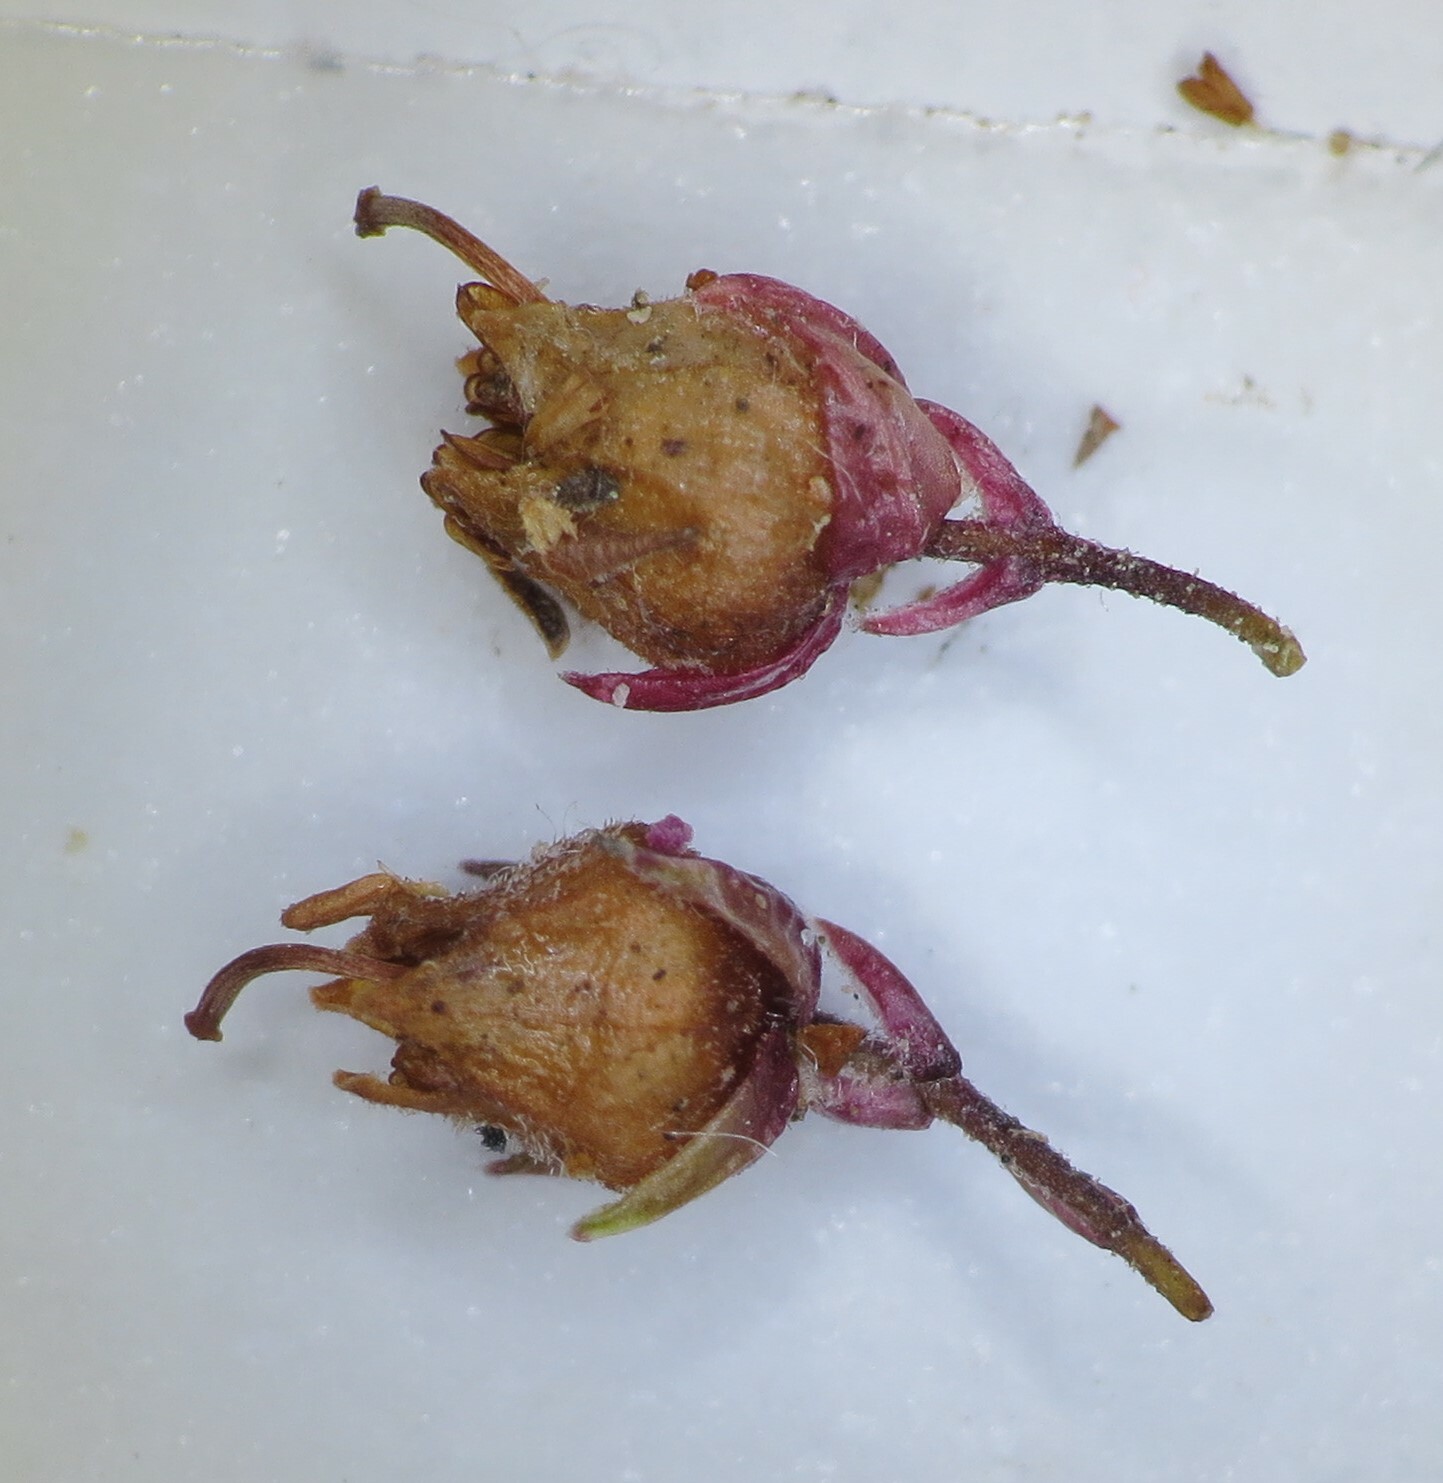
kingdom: Plantae
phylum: Tracheophyta
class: Magnoliopsida
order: Ericales
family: Ericaceae
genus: Erica
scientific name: Erica oliveri
